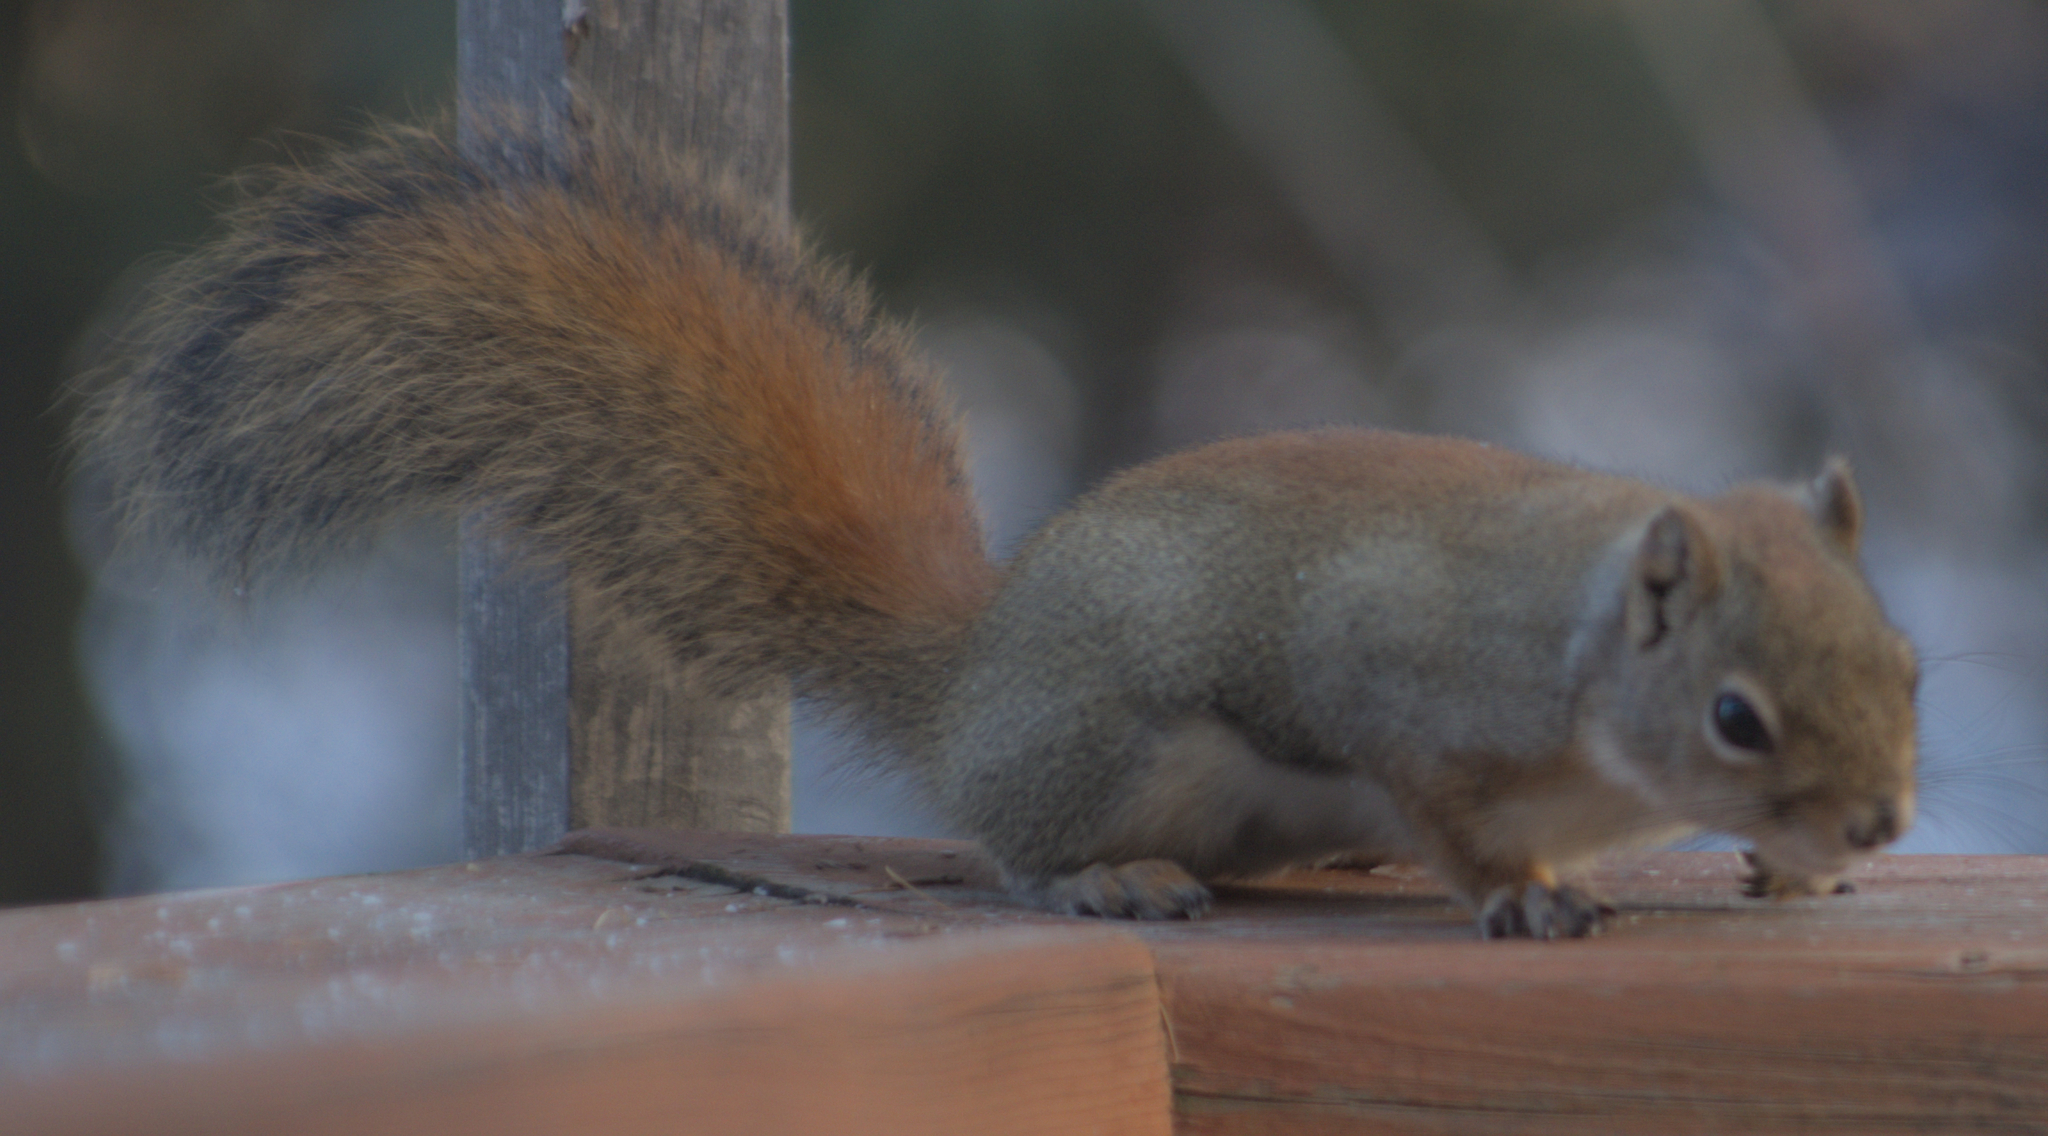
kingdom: Animalia
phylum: Chordata
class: Mammalia
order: Rodentia
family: Sciuridae
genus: Tamiasciurus
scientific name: Tamiasciurus hudsonicus
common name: Red squirrel
